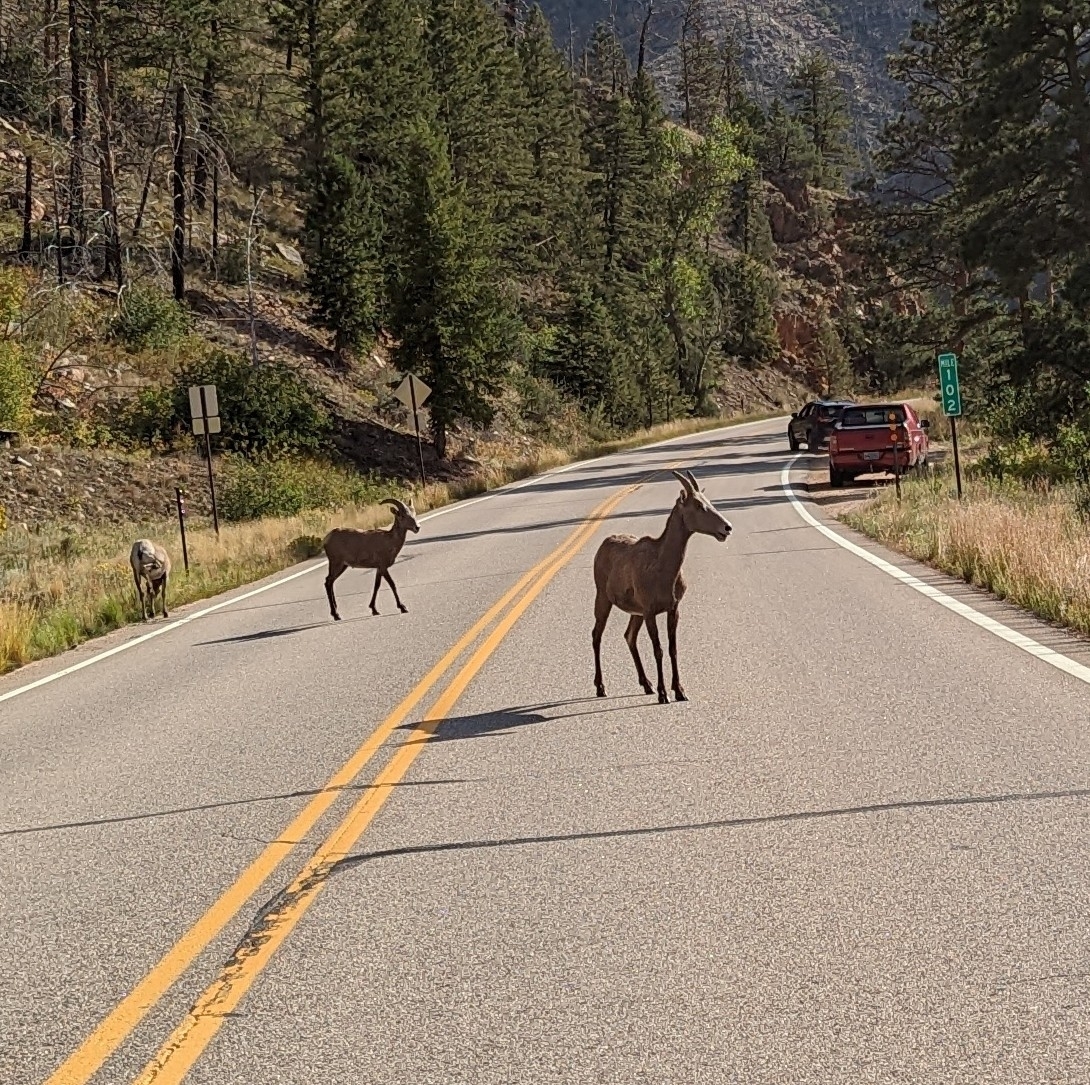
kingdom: Animalia
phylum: Chordata
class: Mammalia
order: Artiodactyla
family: Bovidae
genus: Ovis
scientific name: Ovis canadensis
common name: Bighorn sheep
